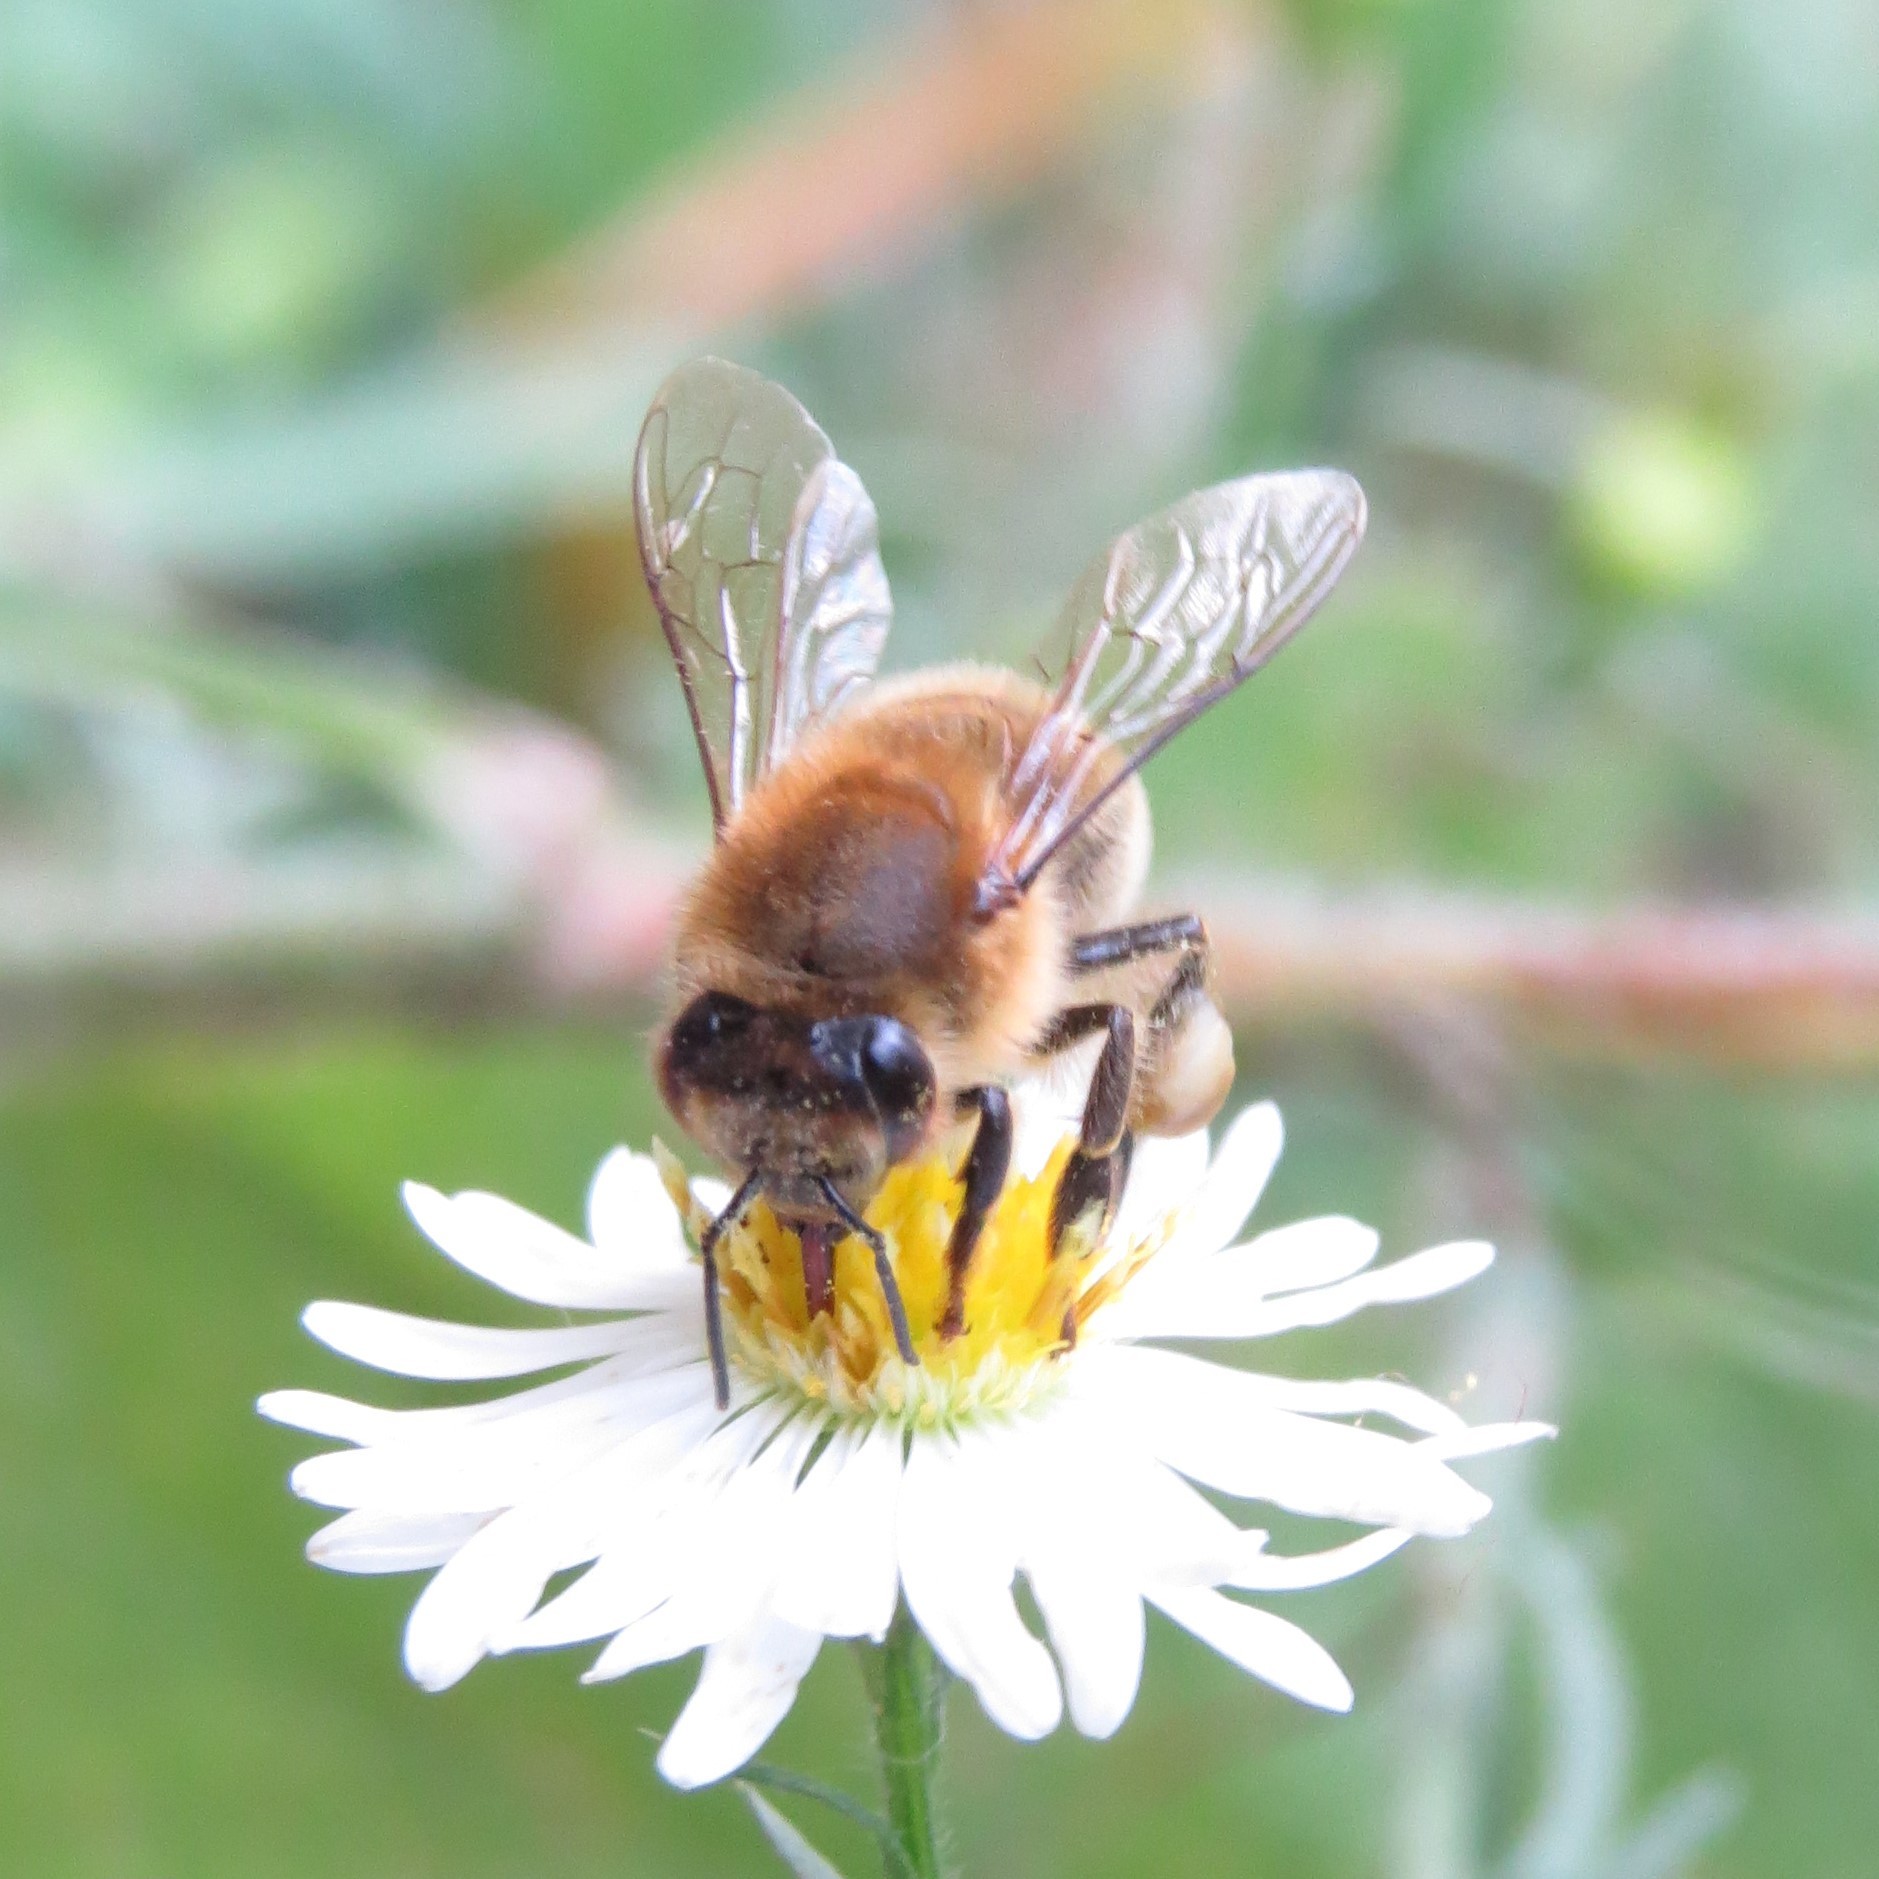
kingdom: Animalia
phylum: Arthropoda
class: Insecta
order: Hymenoptera
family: Apidae
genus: Apis
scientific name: Apis mellifera
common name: Honey bee
